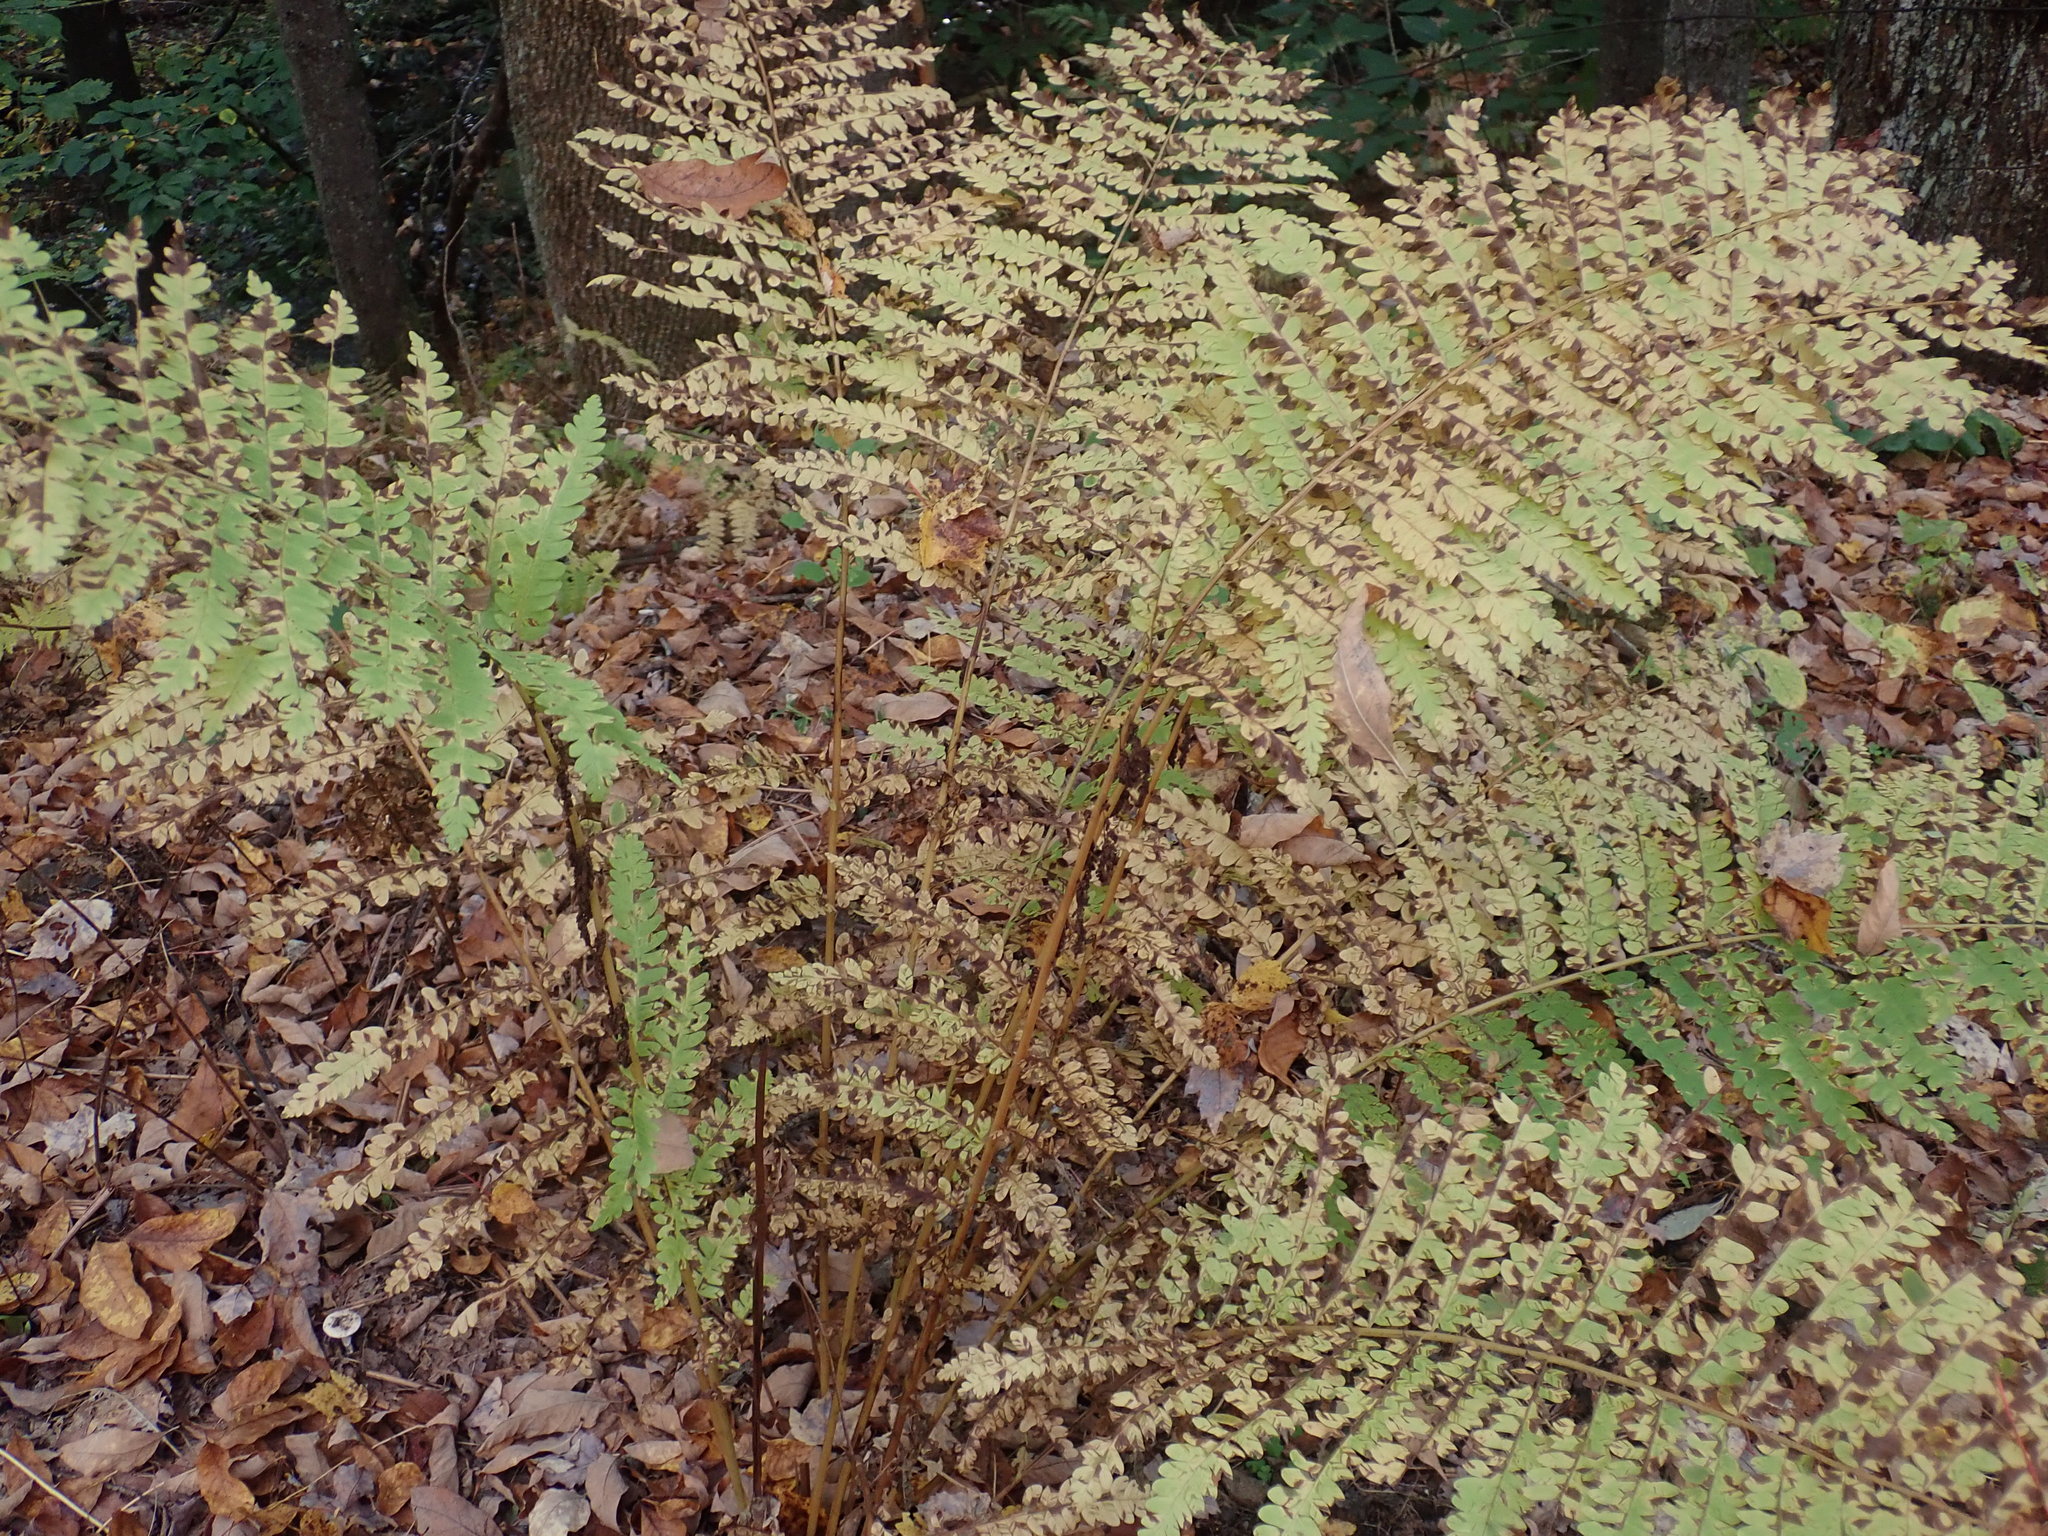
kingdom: Plantae
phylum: Tracheophyta
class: Polypodiopsida
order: Osmundales
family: Osmundaceae
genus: Claytosmunda
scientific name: Claytosmunda claytoniana
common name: Clayton's fern
